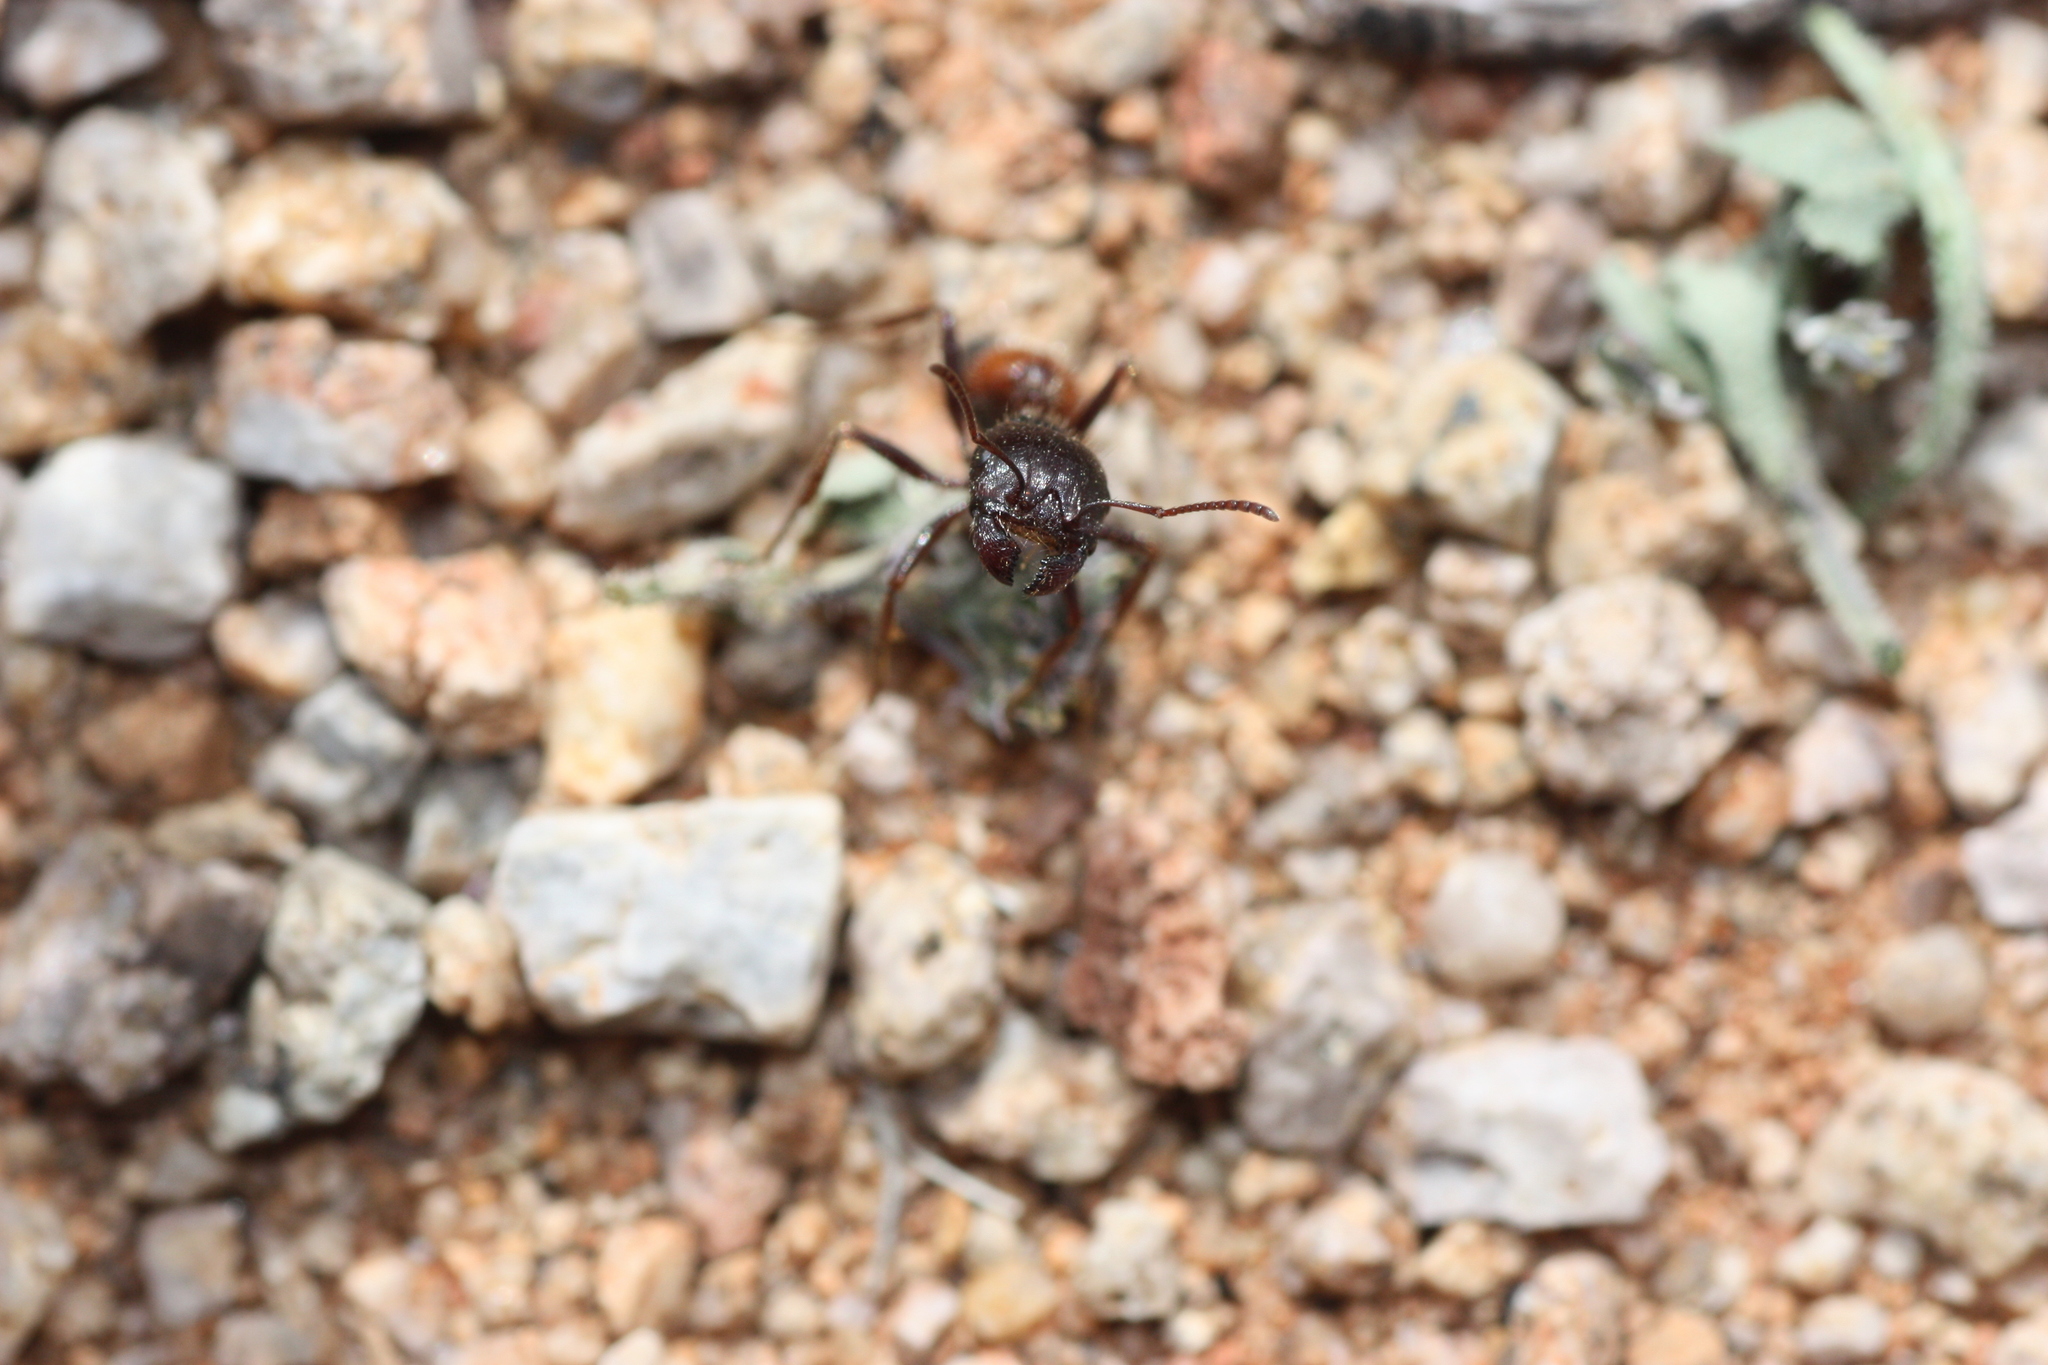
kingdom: Animalia
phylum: Arthropoda
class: Insecta
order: Hymenoptera
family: Formicidae
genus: Pogonomyrmex
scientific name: Pogonomyrmex rugosus
